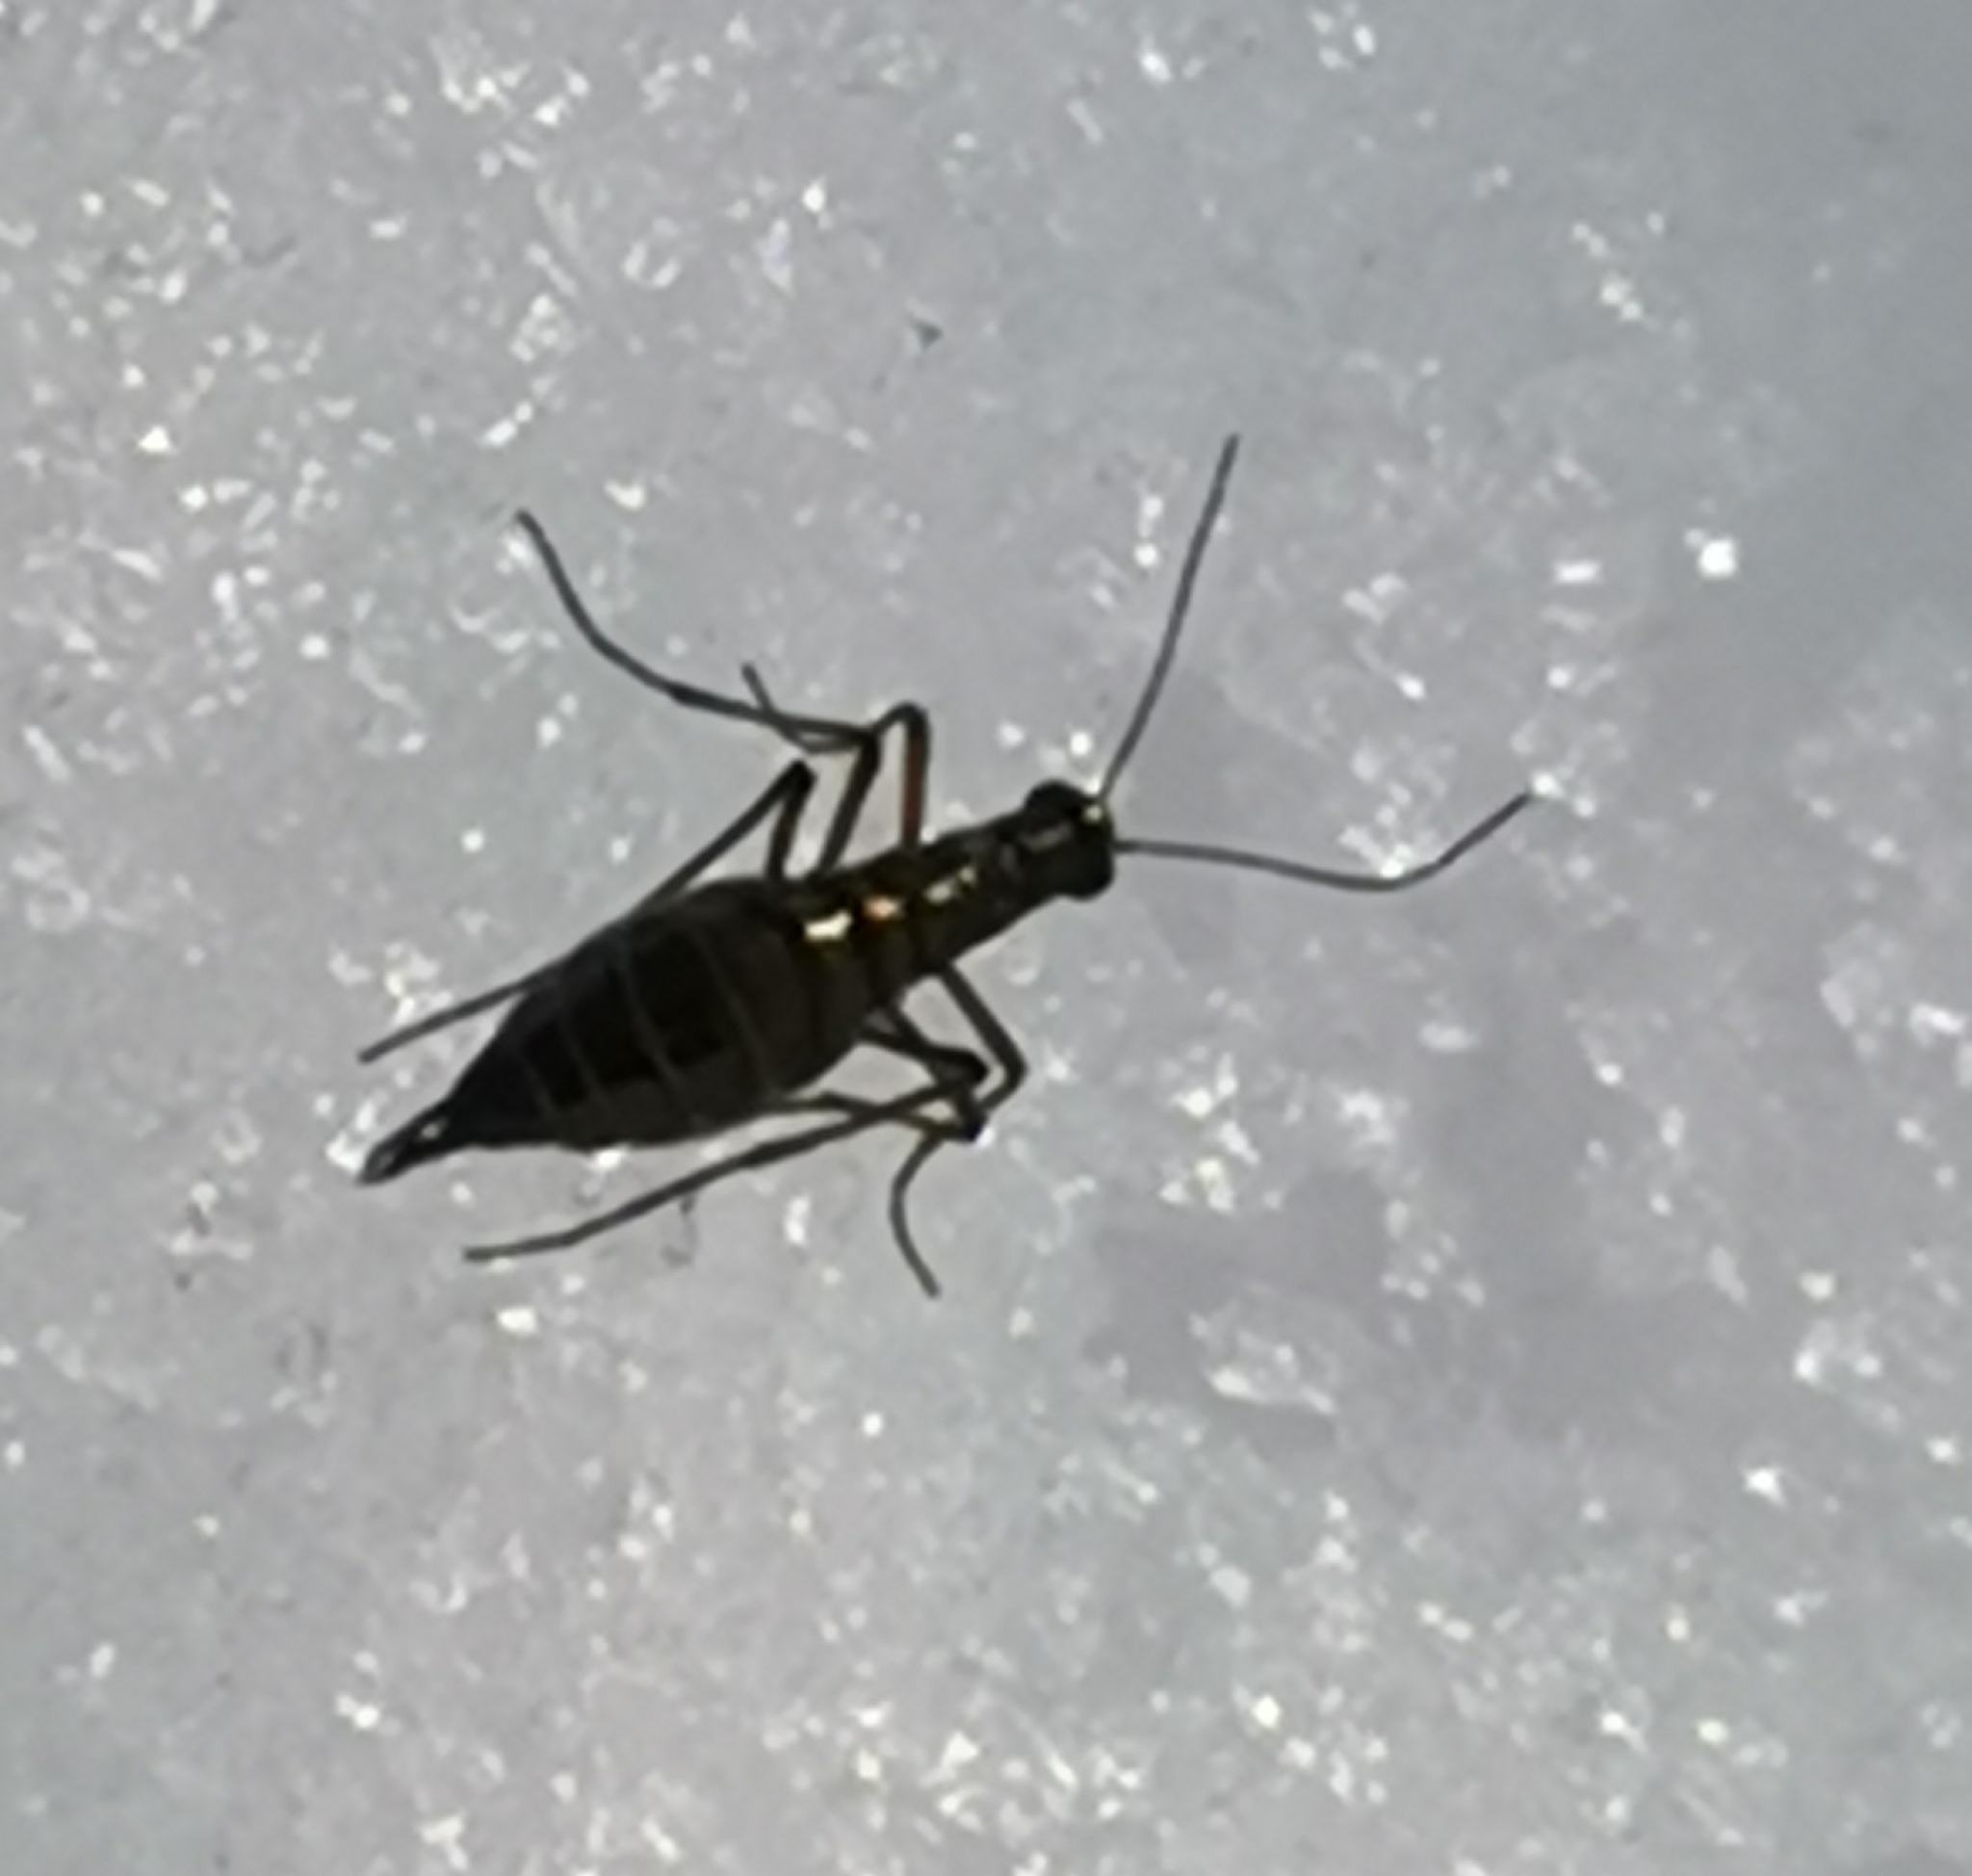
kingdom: Animalia
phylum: Arthropoda
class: Insecta
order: Mecoptera
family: Boreidae
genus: Boreus
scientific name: Boreus westwoodi
